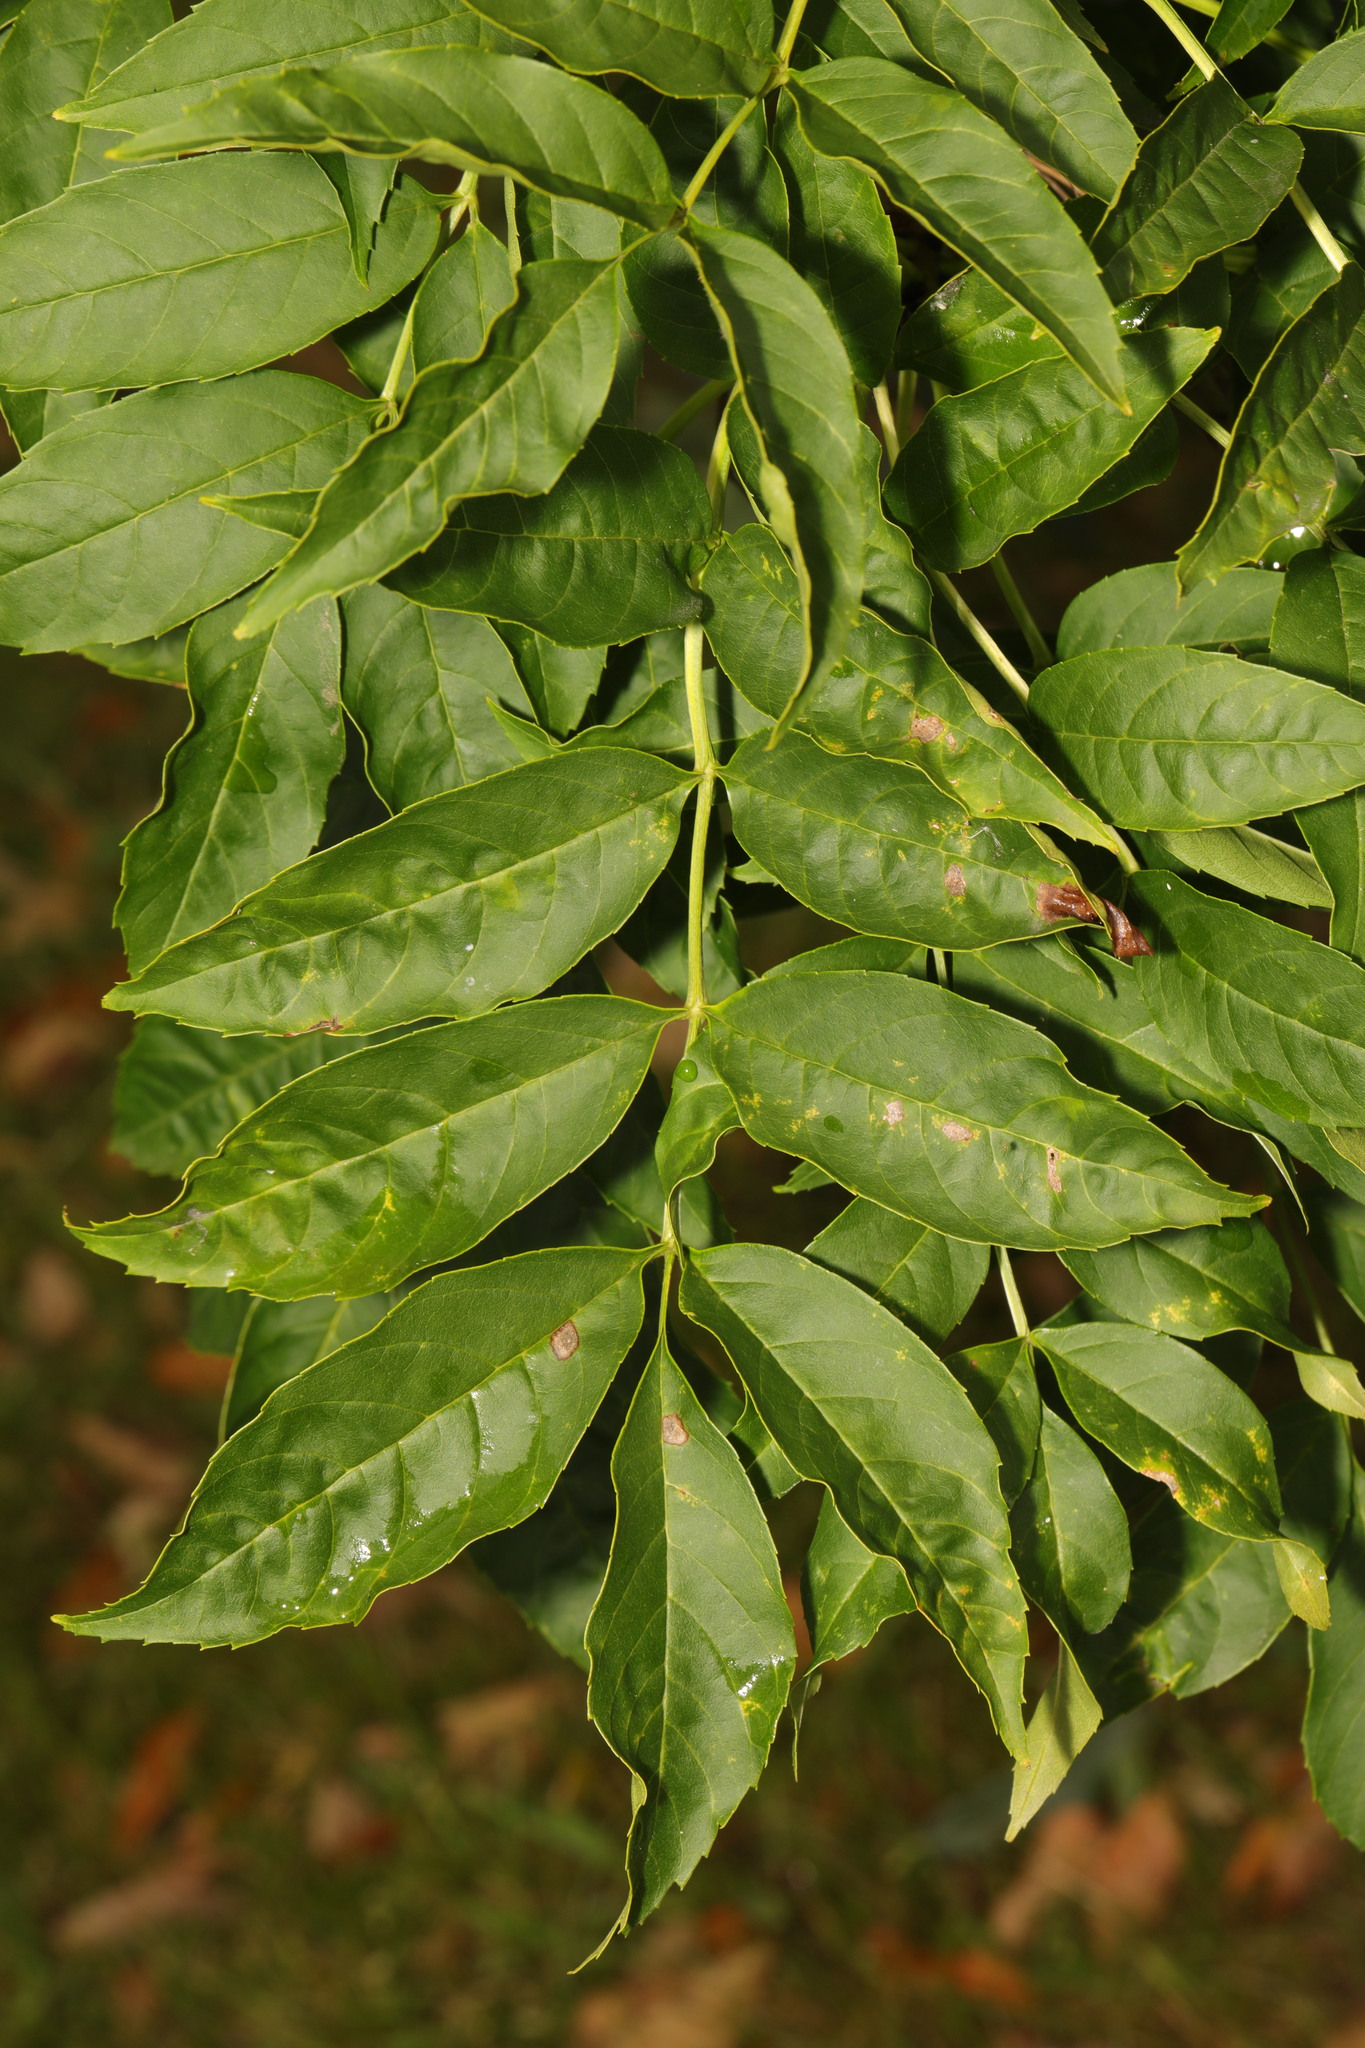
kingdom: Plantae
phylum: Tracheophyta
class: Magnoliopsida
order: Lamiales
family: Oleaceae
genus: Fraxinus
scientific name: Fraxinus excelsior
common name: European ash
